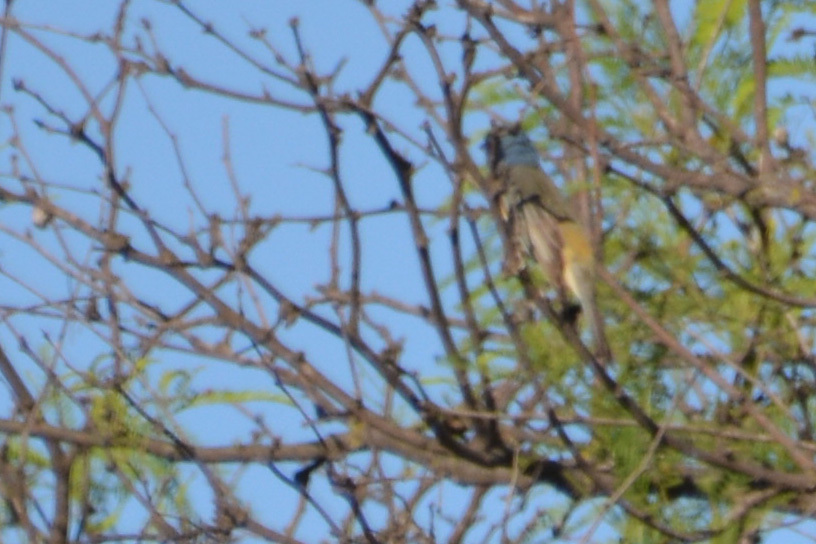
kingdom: Animalia
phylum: Chordata
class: Aves
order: Passeriformes
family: Thraupidae
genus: Rauenia
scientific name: Rauenia bonariensis
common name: Blue-and-yellow tanager
